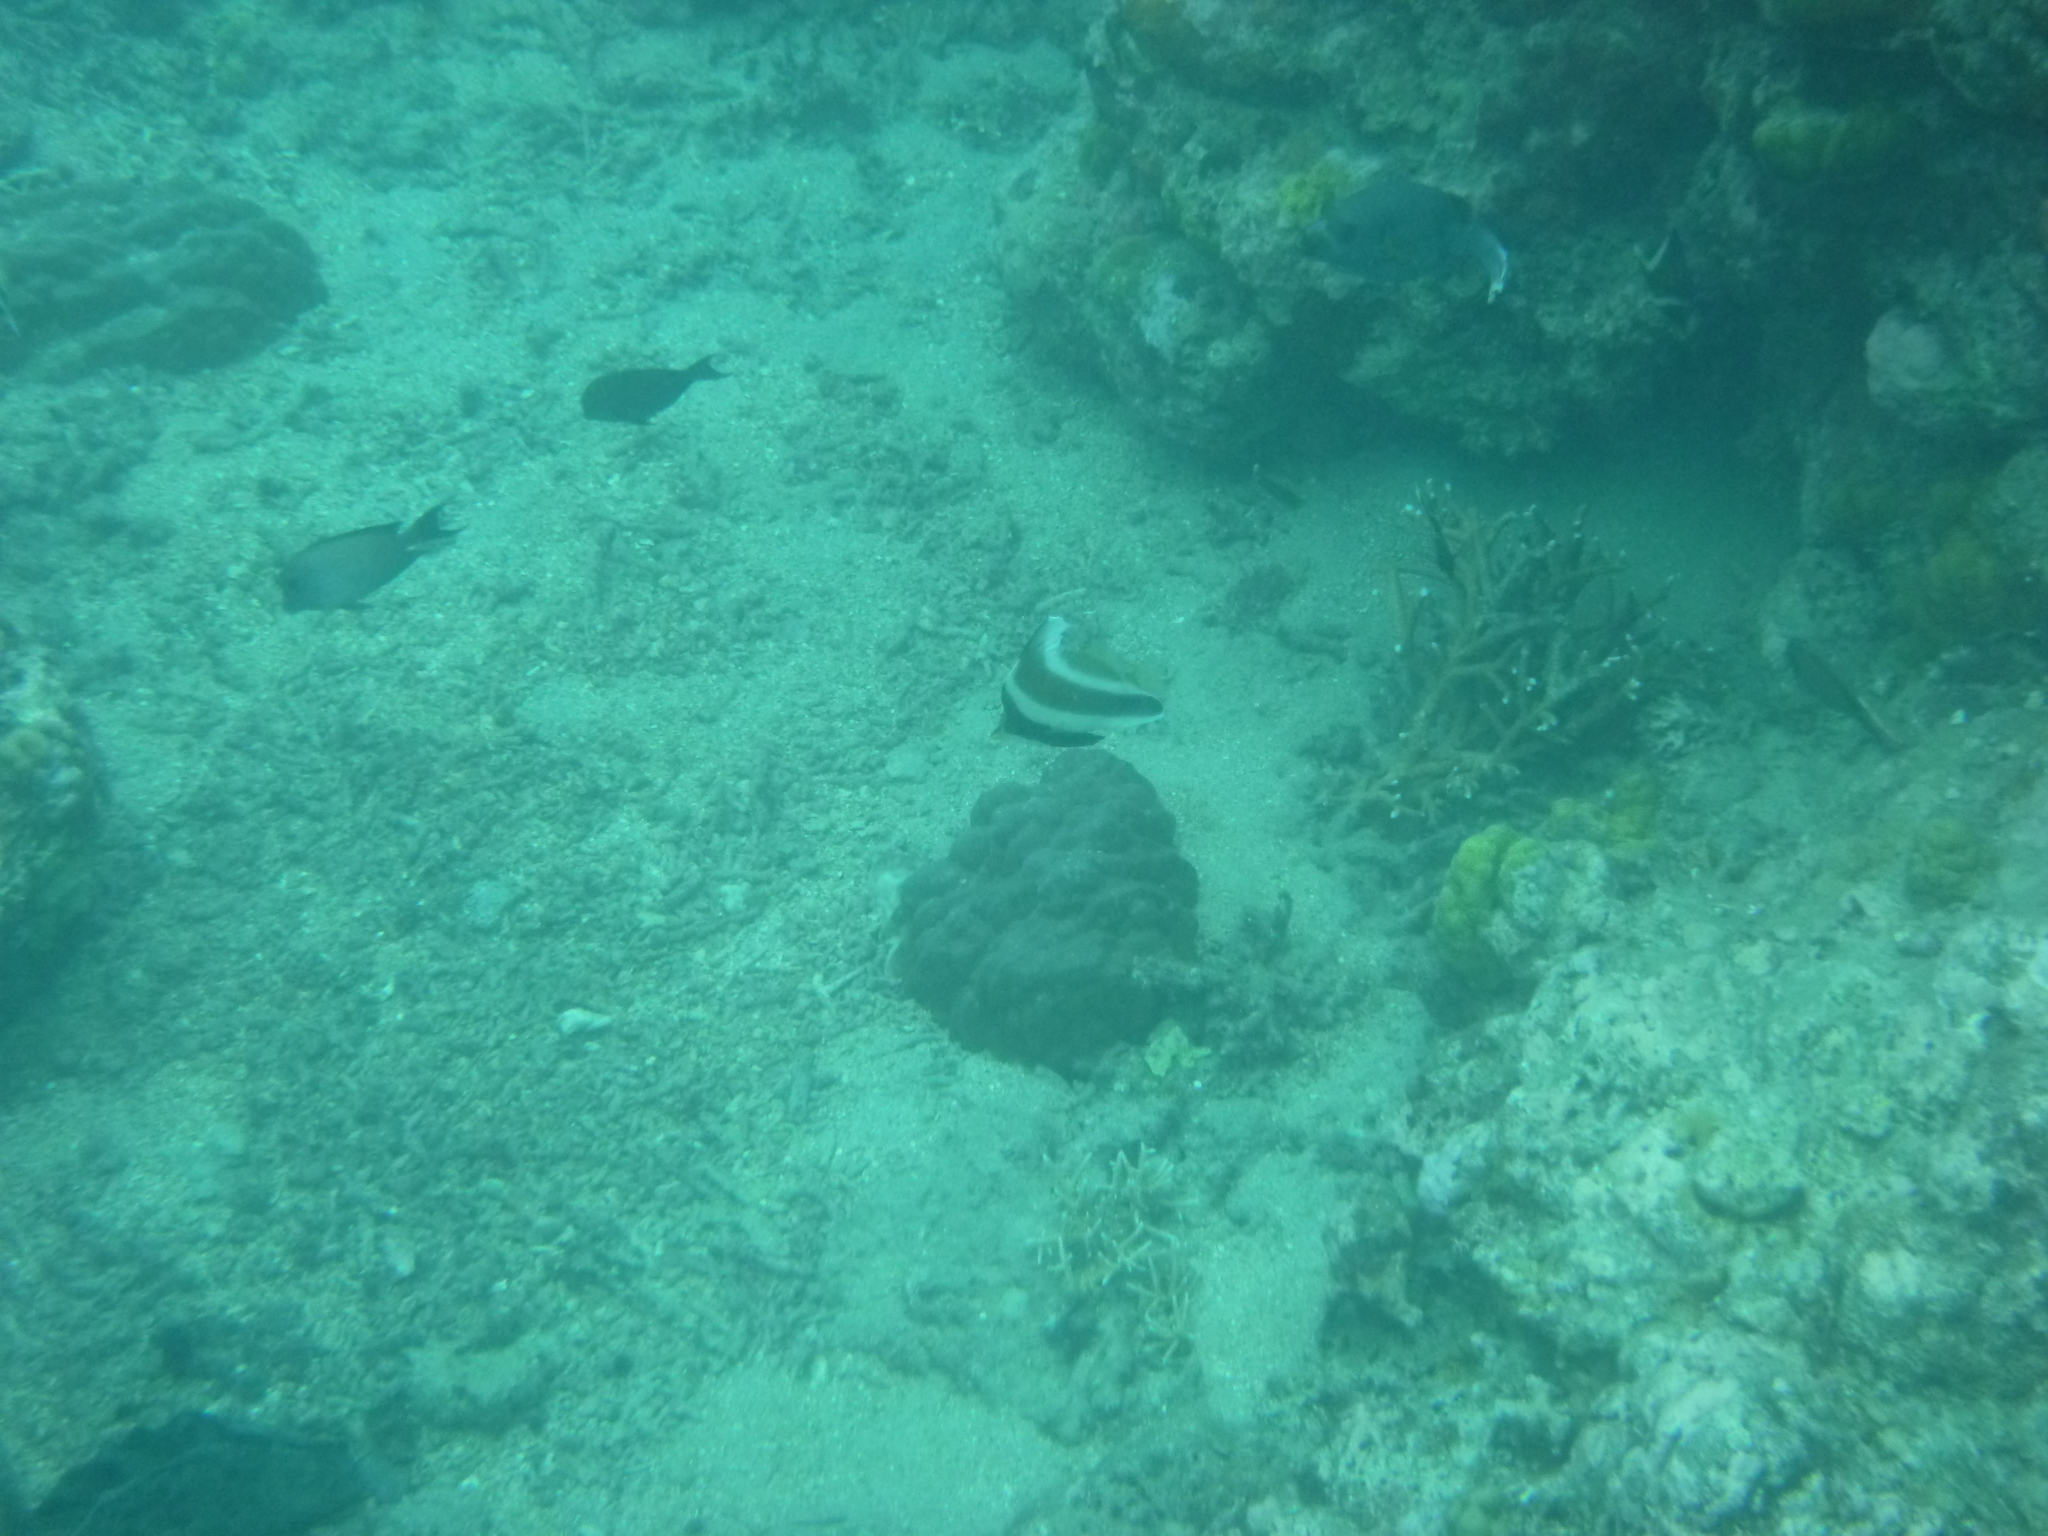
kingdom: Animalia
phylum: Chordata
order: Perciformes
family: Chaetodontidae
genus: Heniochus
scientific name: Heniochus chrysostomus
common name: Horned bannerfish
